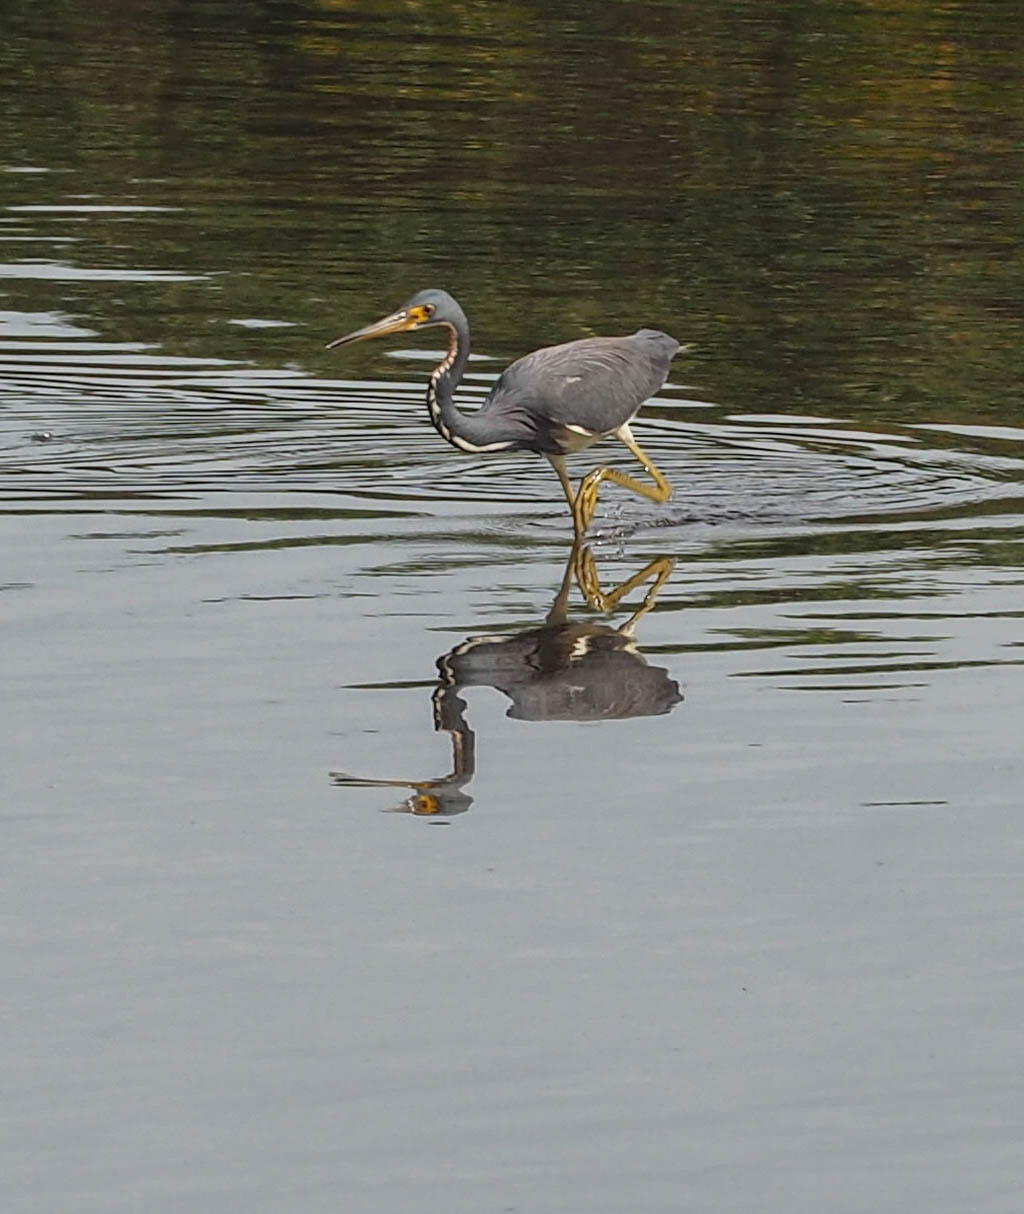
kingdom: Animalia
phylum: Chordata
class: Aves
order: Pelecaniformes
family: Ardeidae
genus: Egretta
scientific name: Egretta tricolor
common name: Tricolored heron
